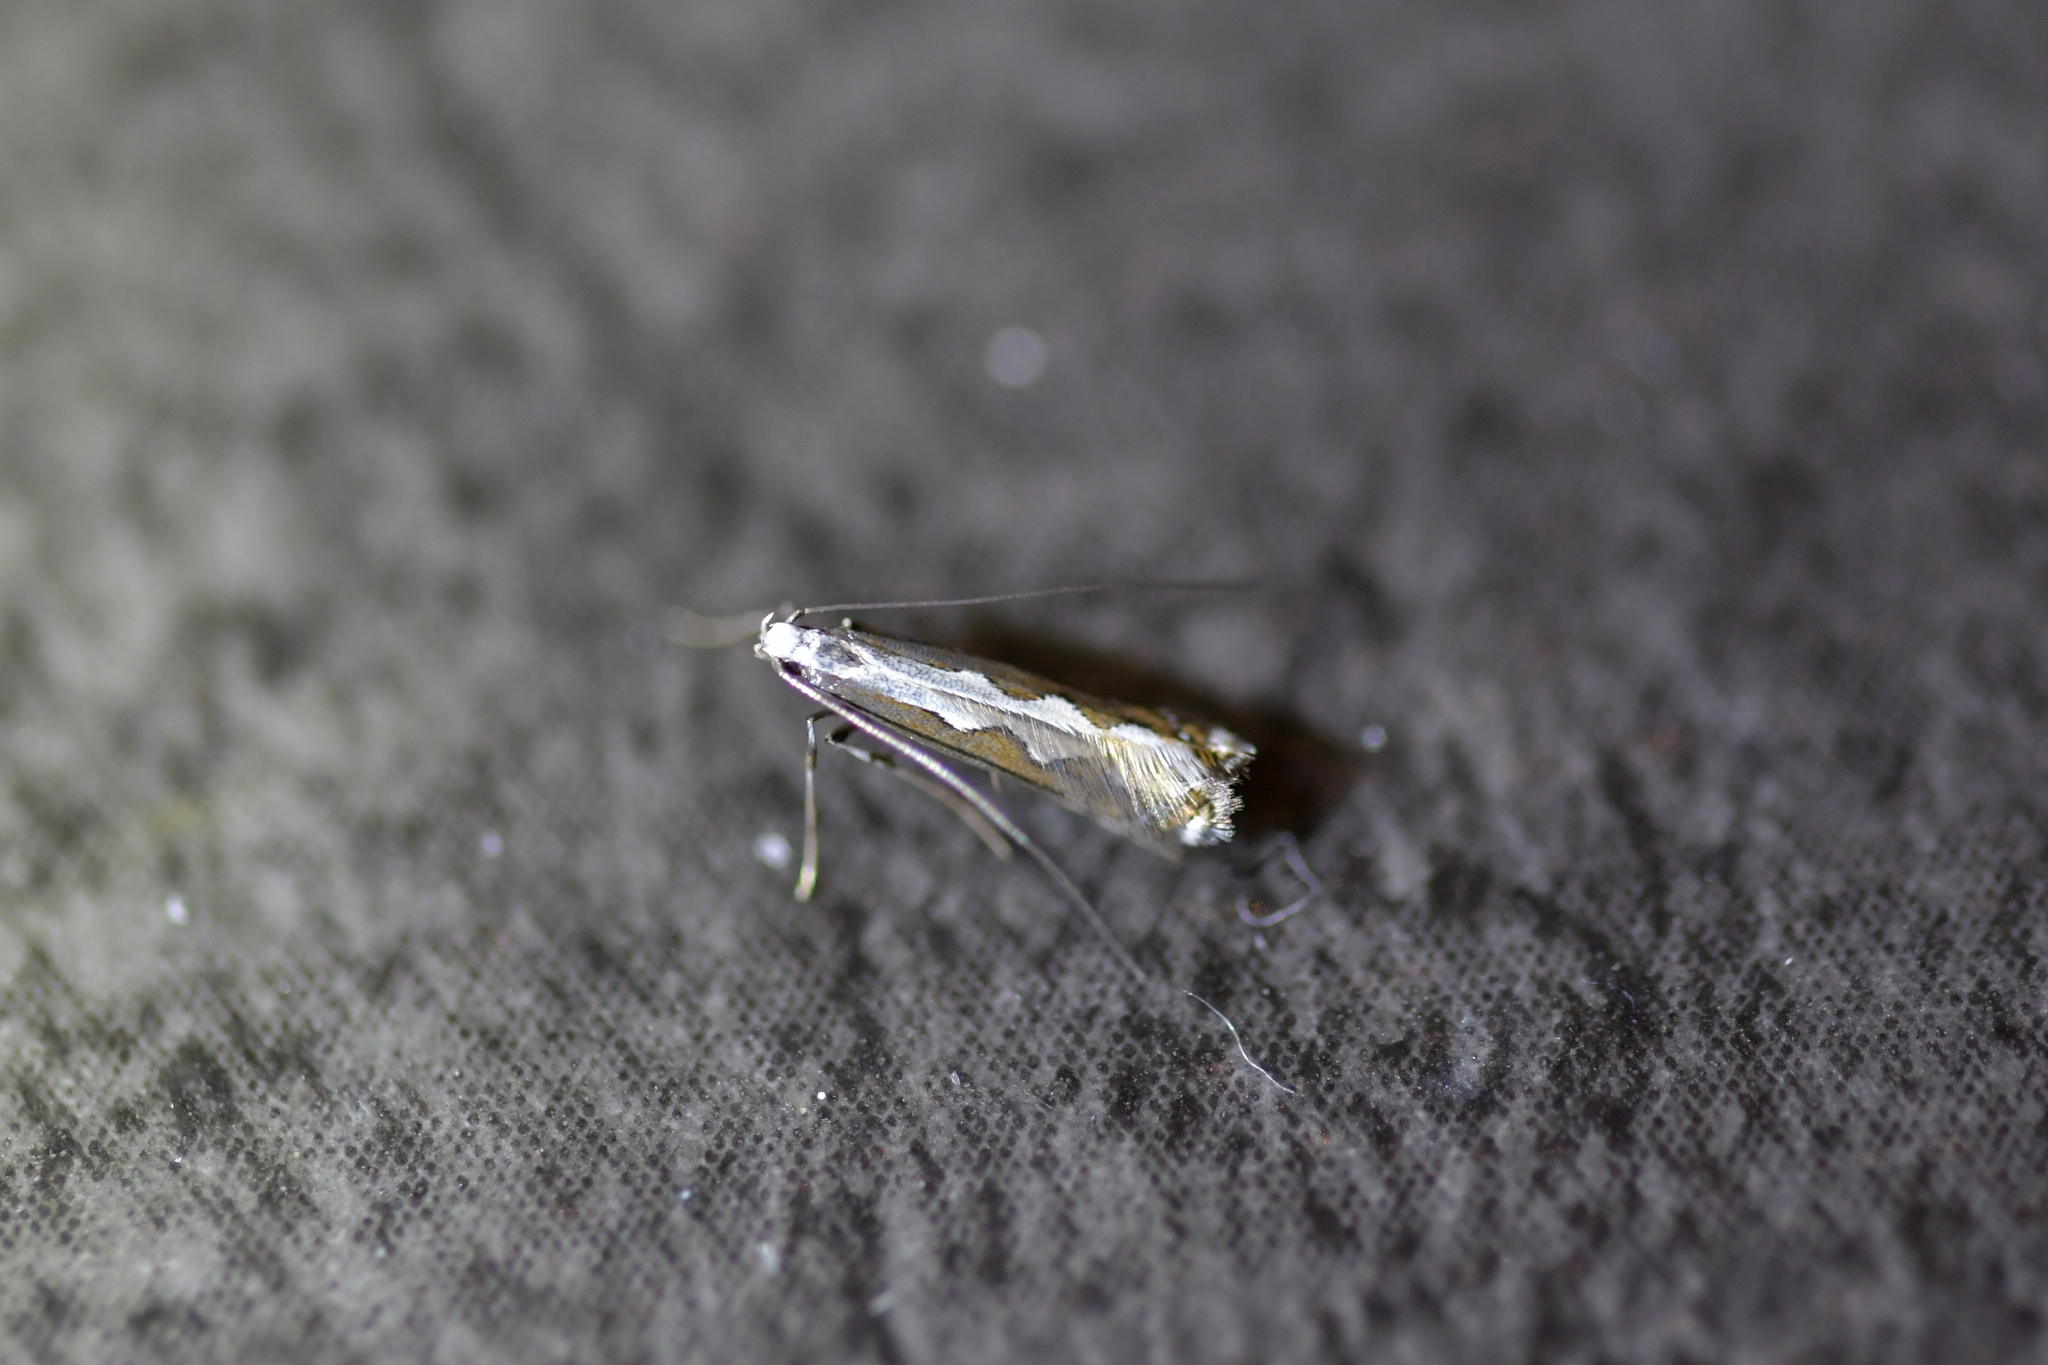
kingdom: Animalia
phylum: Arthropoda
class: Insecta
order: Lepidoptera
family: Gracillariidae
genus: Dialectica
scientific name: Dialectica scalariella
